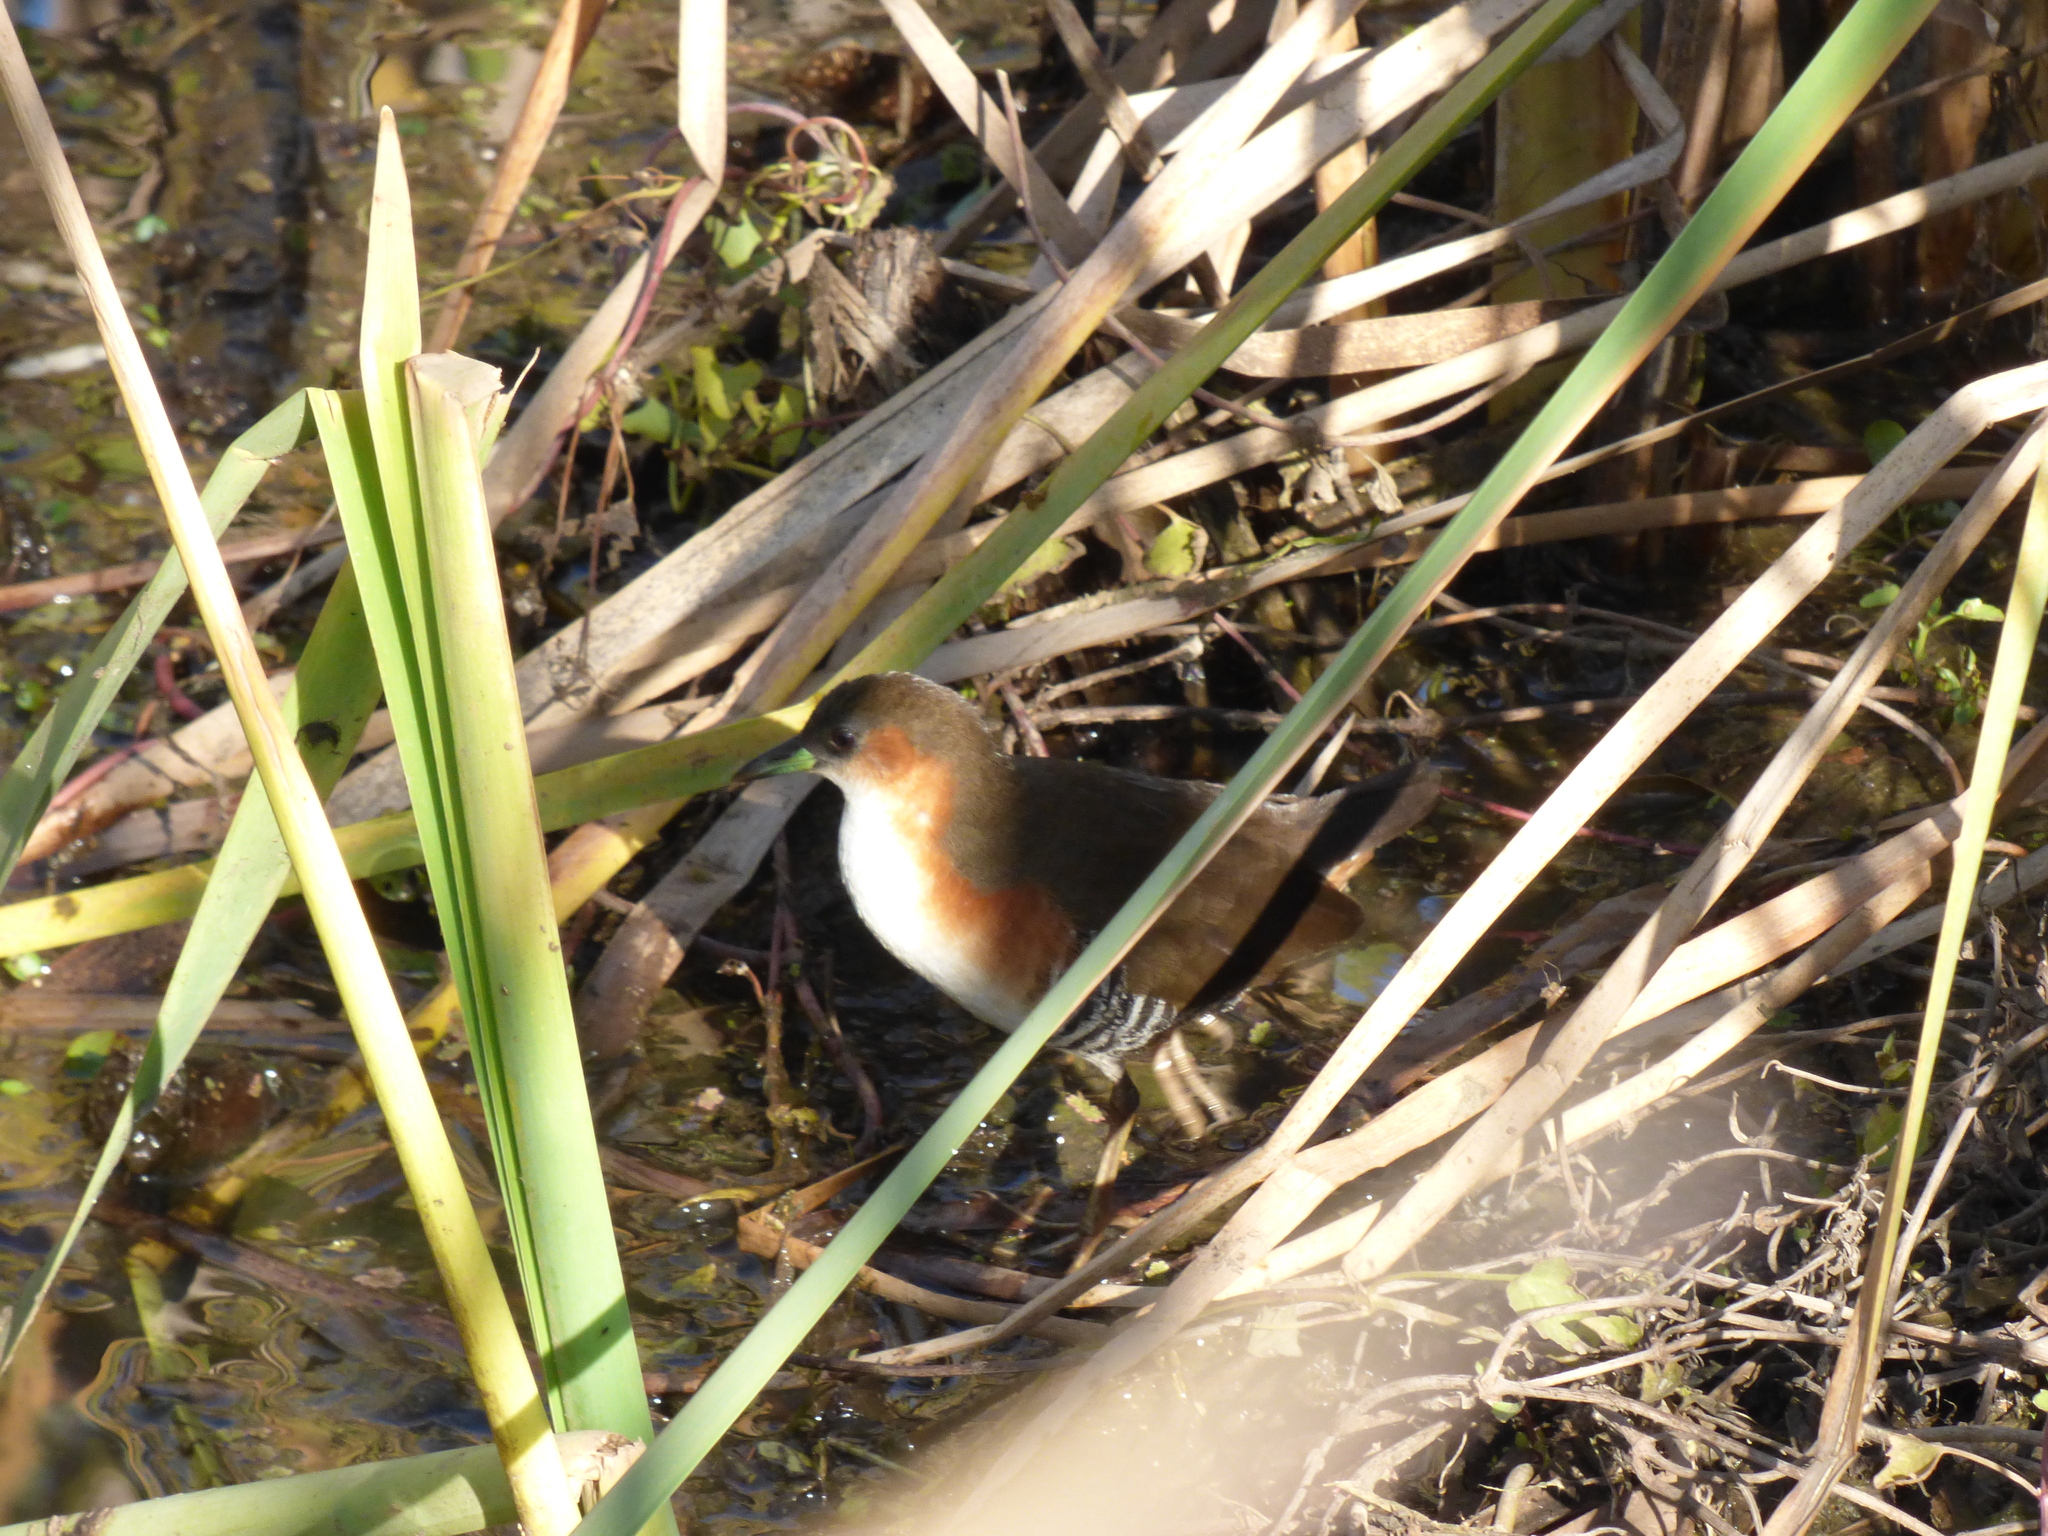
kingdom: Animalia
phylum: Chordata
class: Aves
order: Gruiformes
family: Rallidae
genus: Laterallus
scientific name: Laterallus melanophaius
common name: Rufous-sided crake
